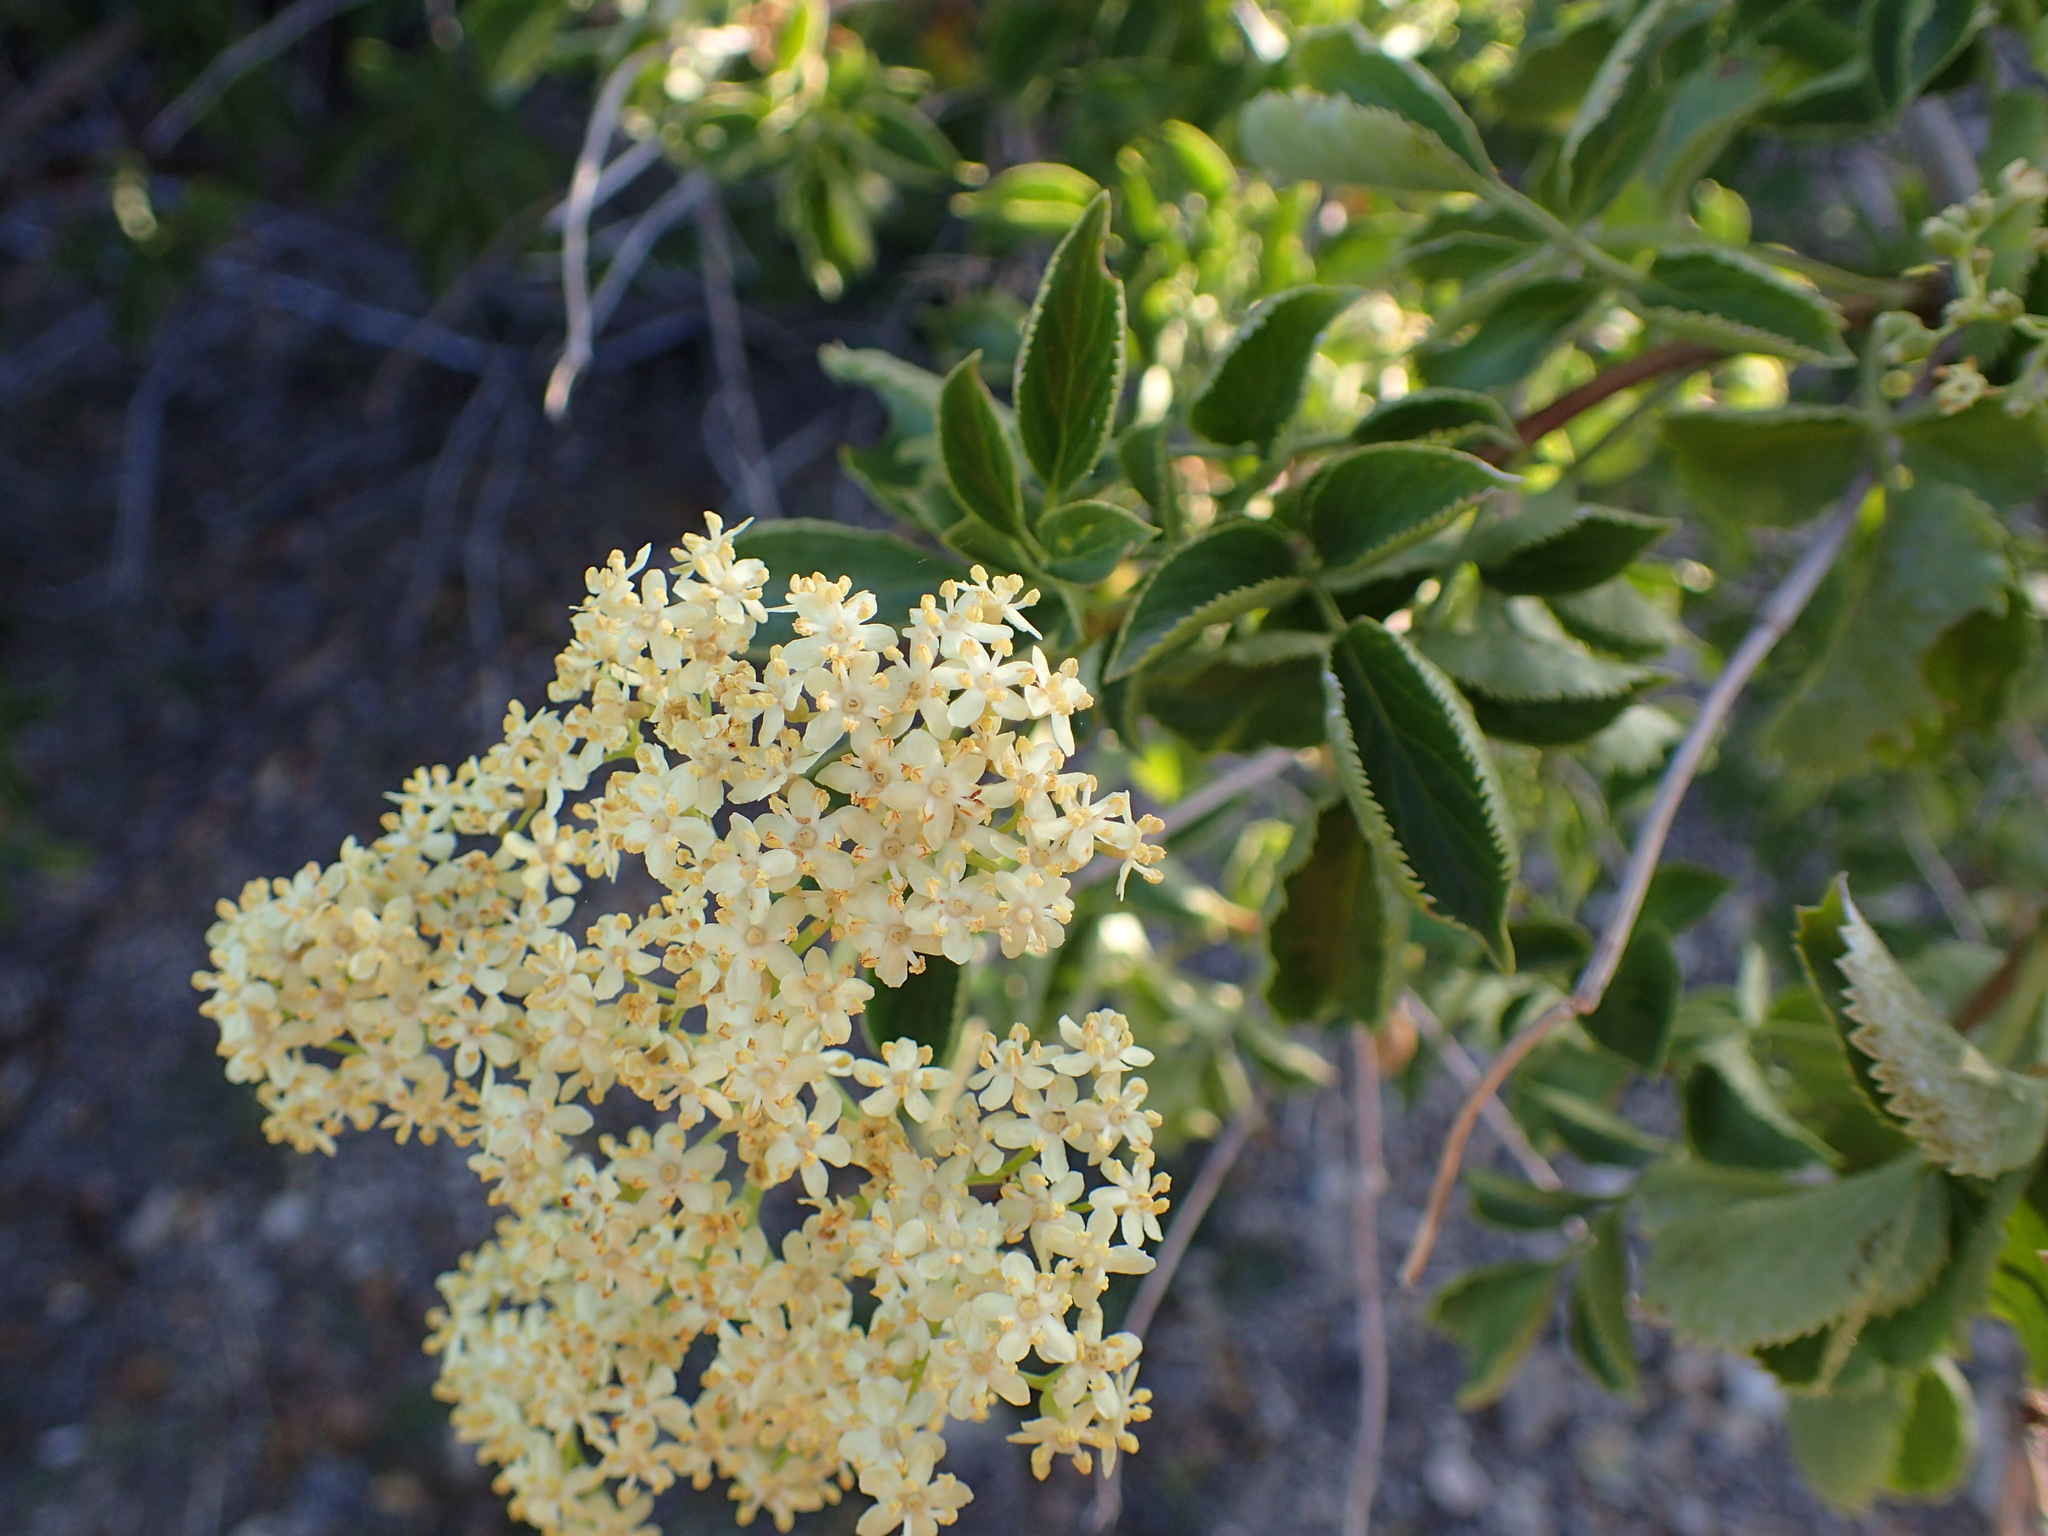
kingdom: Plantae
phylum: Tracheophyta
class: Magnoliopsida
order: Dipsacales
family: Viburnaceae
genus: Sambucus
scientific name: Sambucus cerulea
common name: Blue elder
